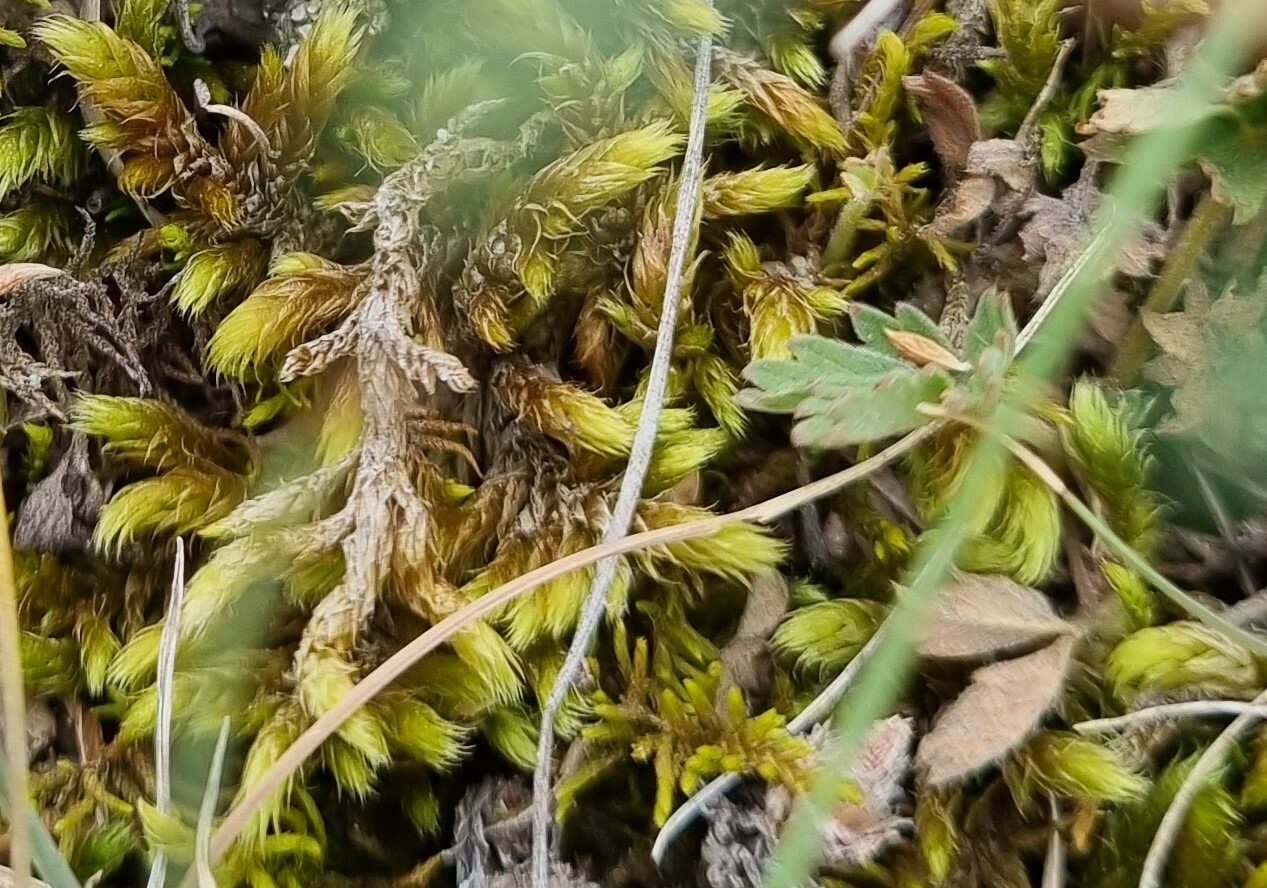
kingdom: Plantae
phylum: Bryophyta
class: Bryopsida
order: Hypnales
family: Rhytidiaceae
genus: Rhytidium
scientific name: Rhytidium rugosum
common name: Wrinkle-leaved moss
